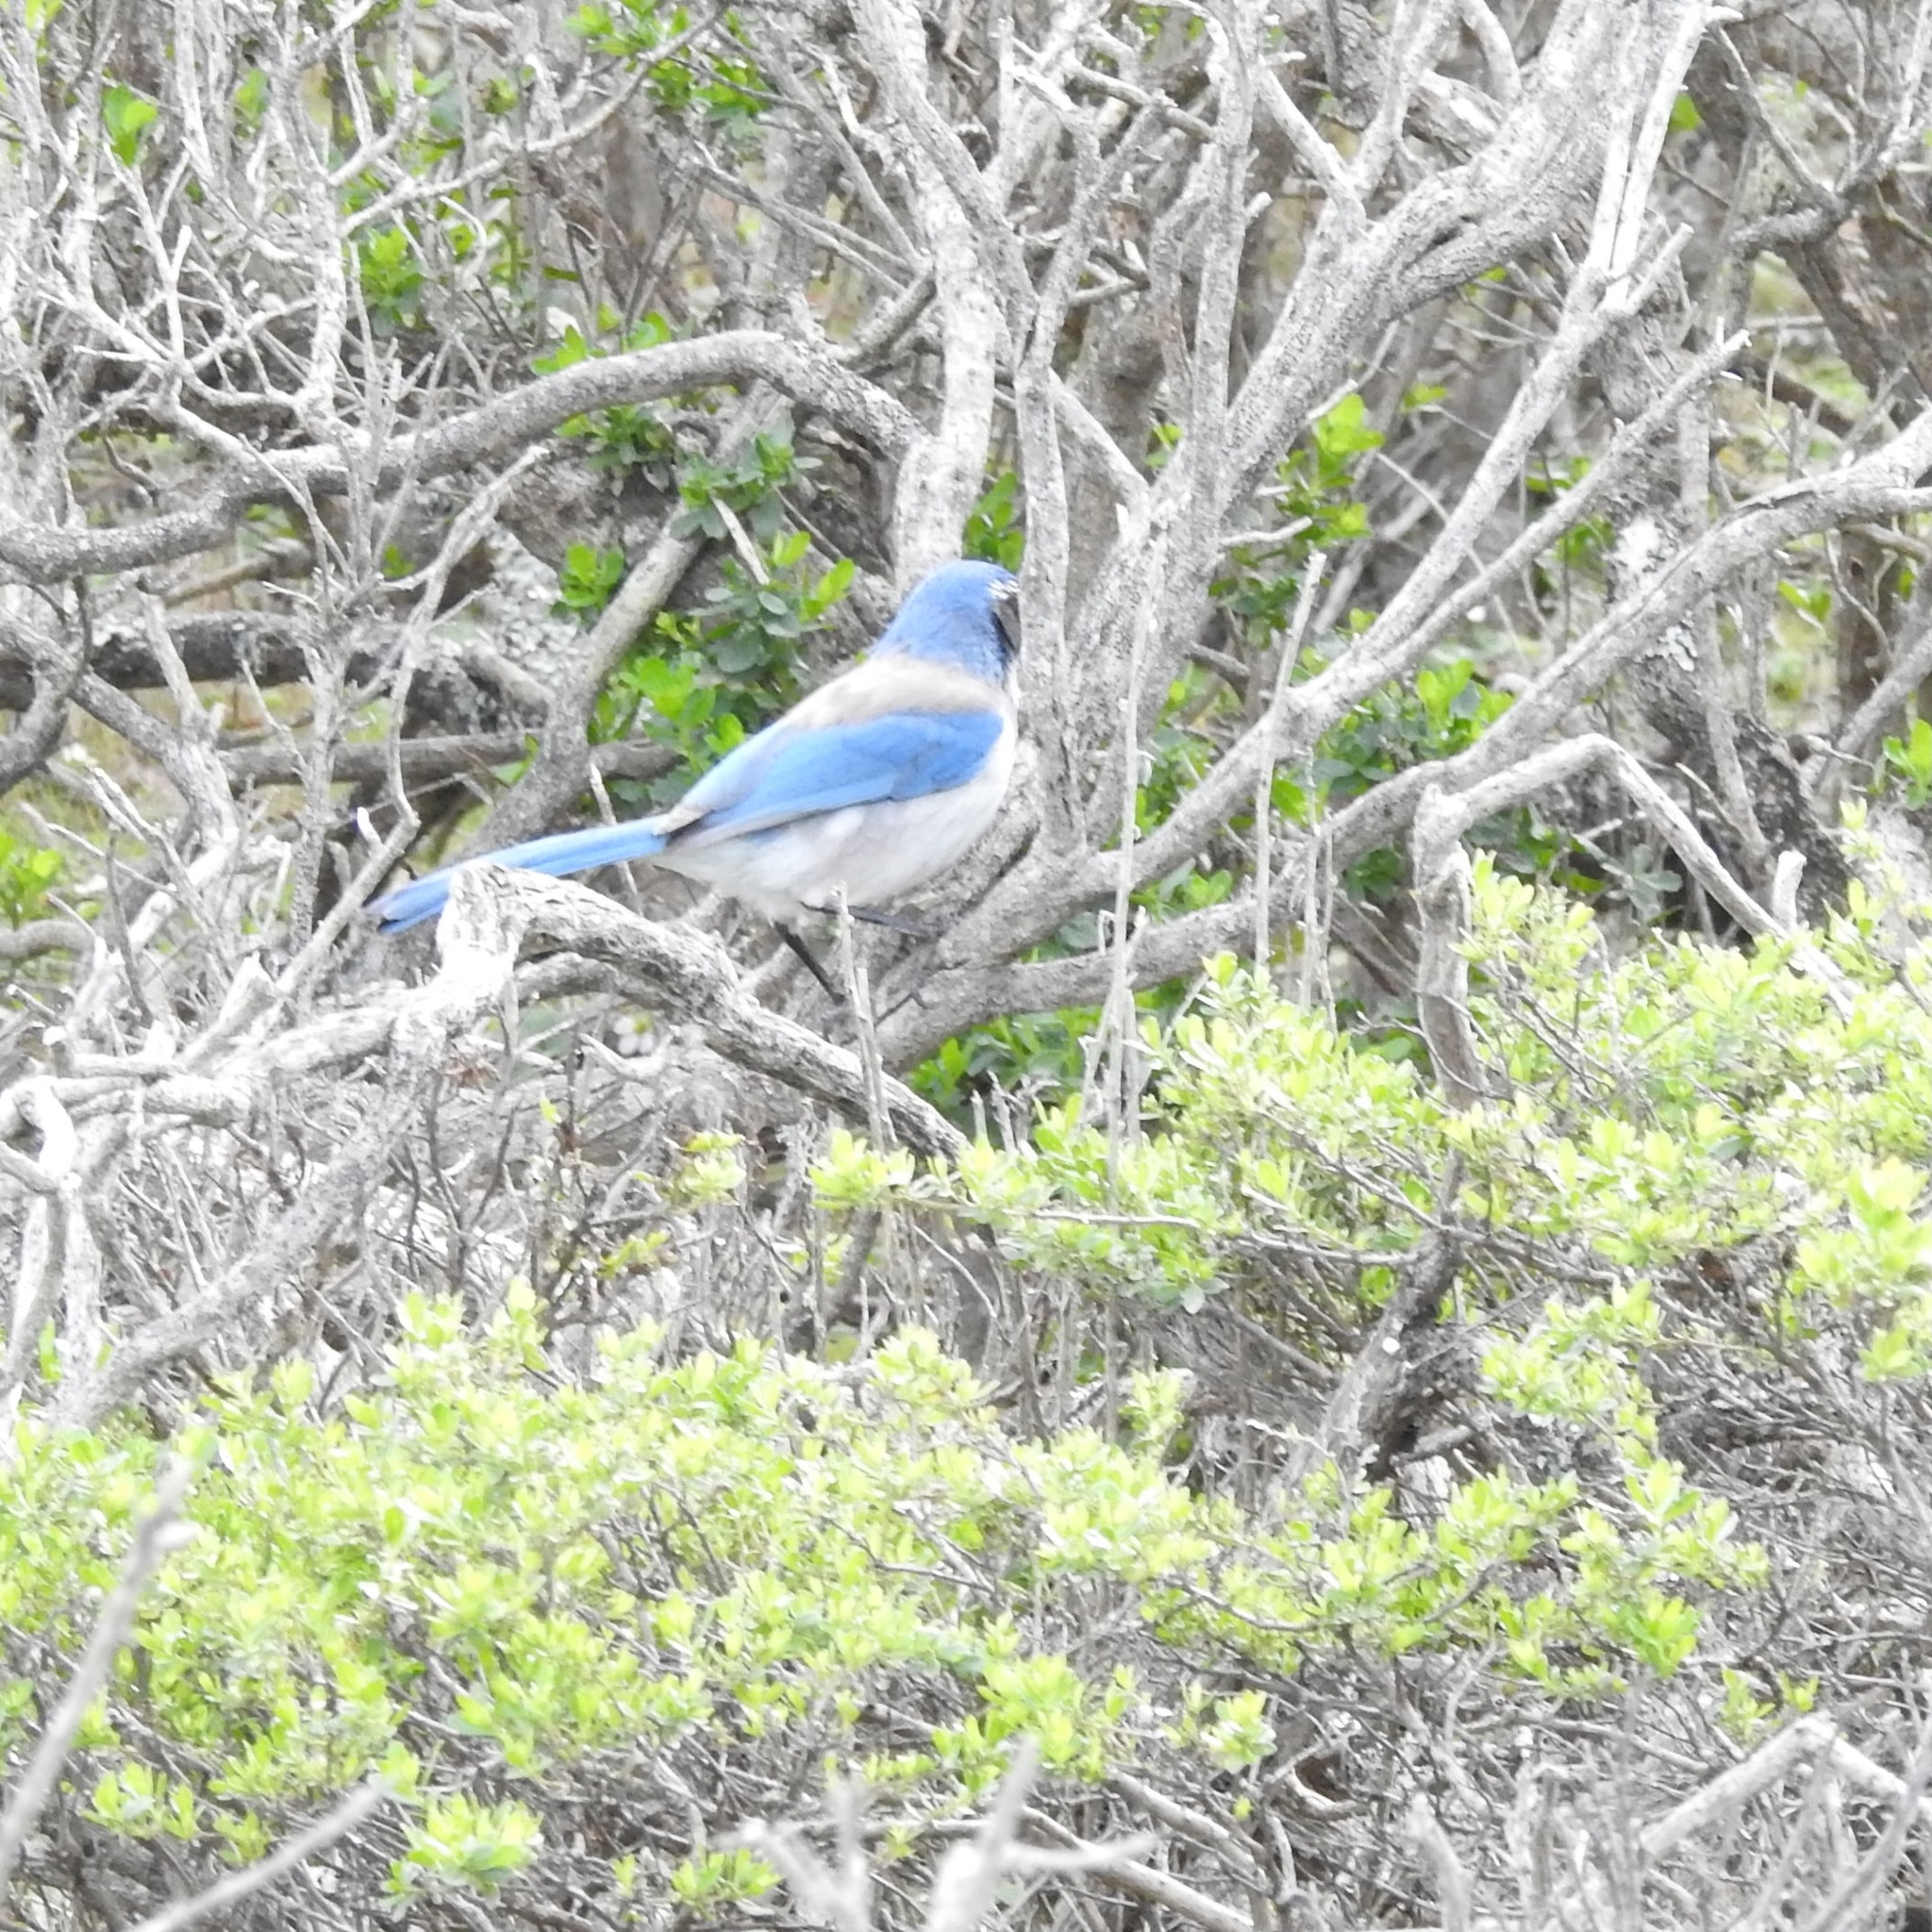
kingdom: Animalia
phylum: Chordata
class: Aves
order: Passeriformes
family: Corvidae
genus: Aphelocoma
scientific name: Aphelocoma californica
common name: California scrub-jay
